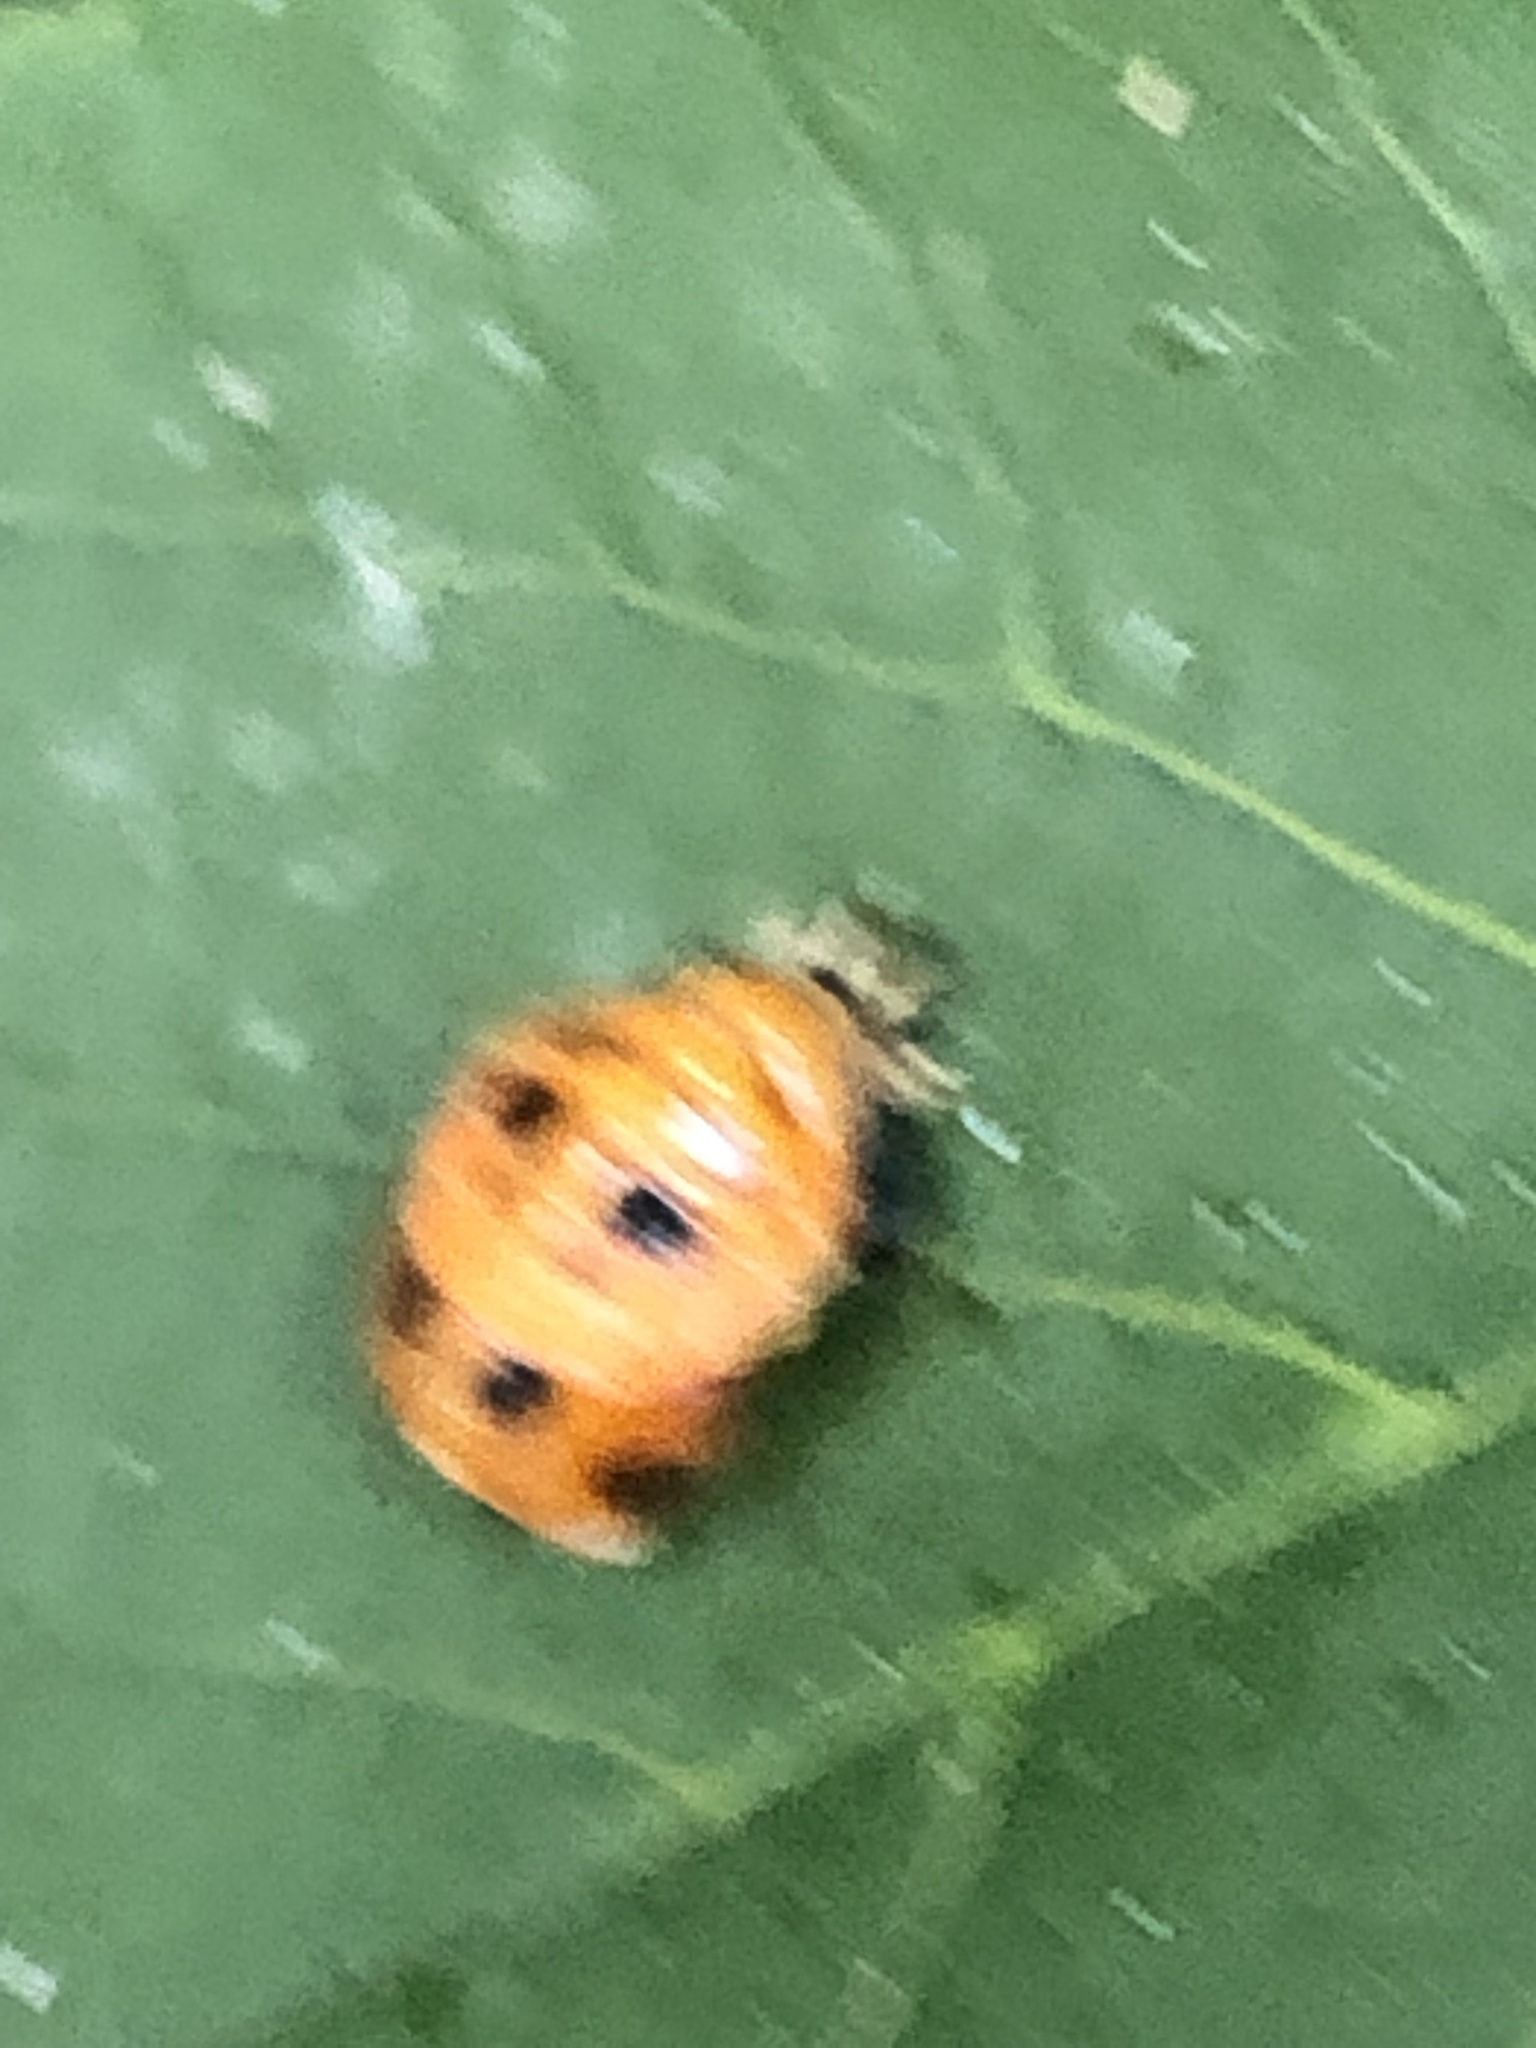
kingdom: Animalia
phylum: Arthropoda
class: Insecta
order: Coleoptera
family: Coccinellidae
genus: Harmonia
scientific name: Harmonia axyridis
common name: Harlequin ladybird
